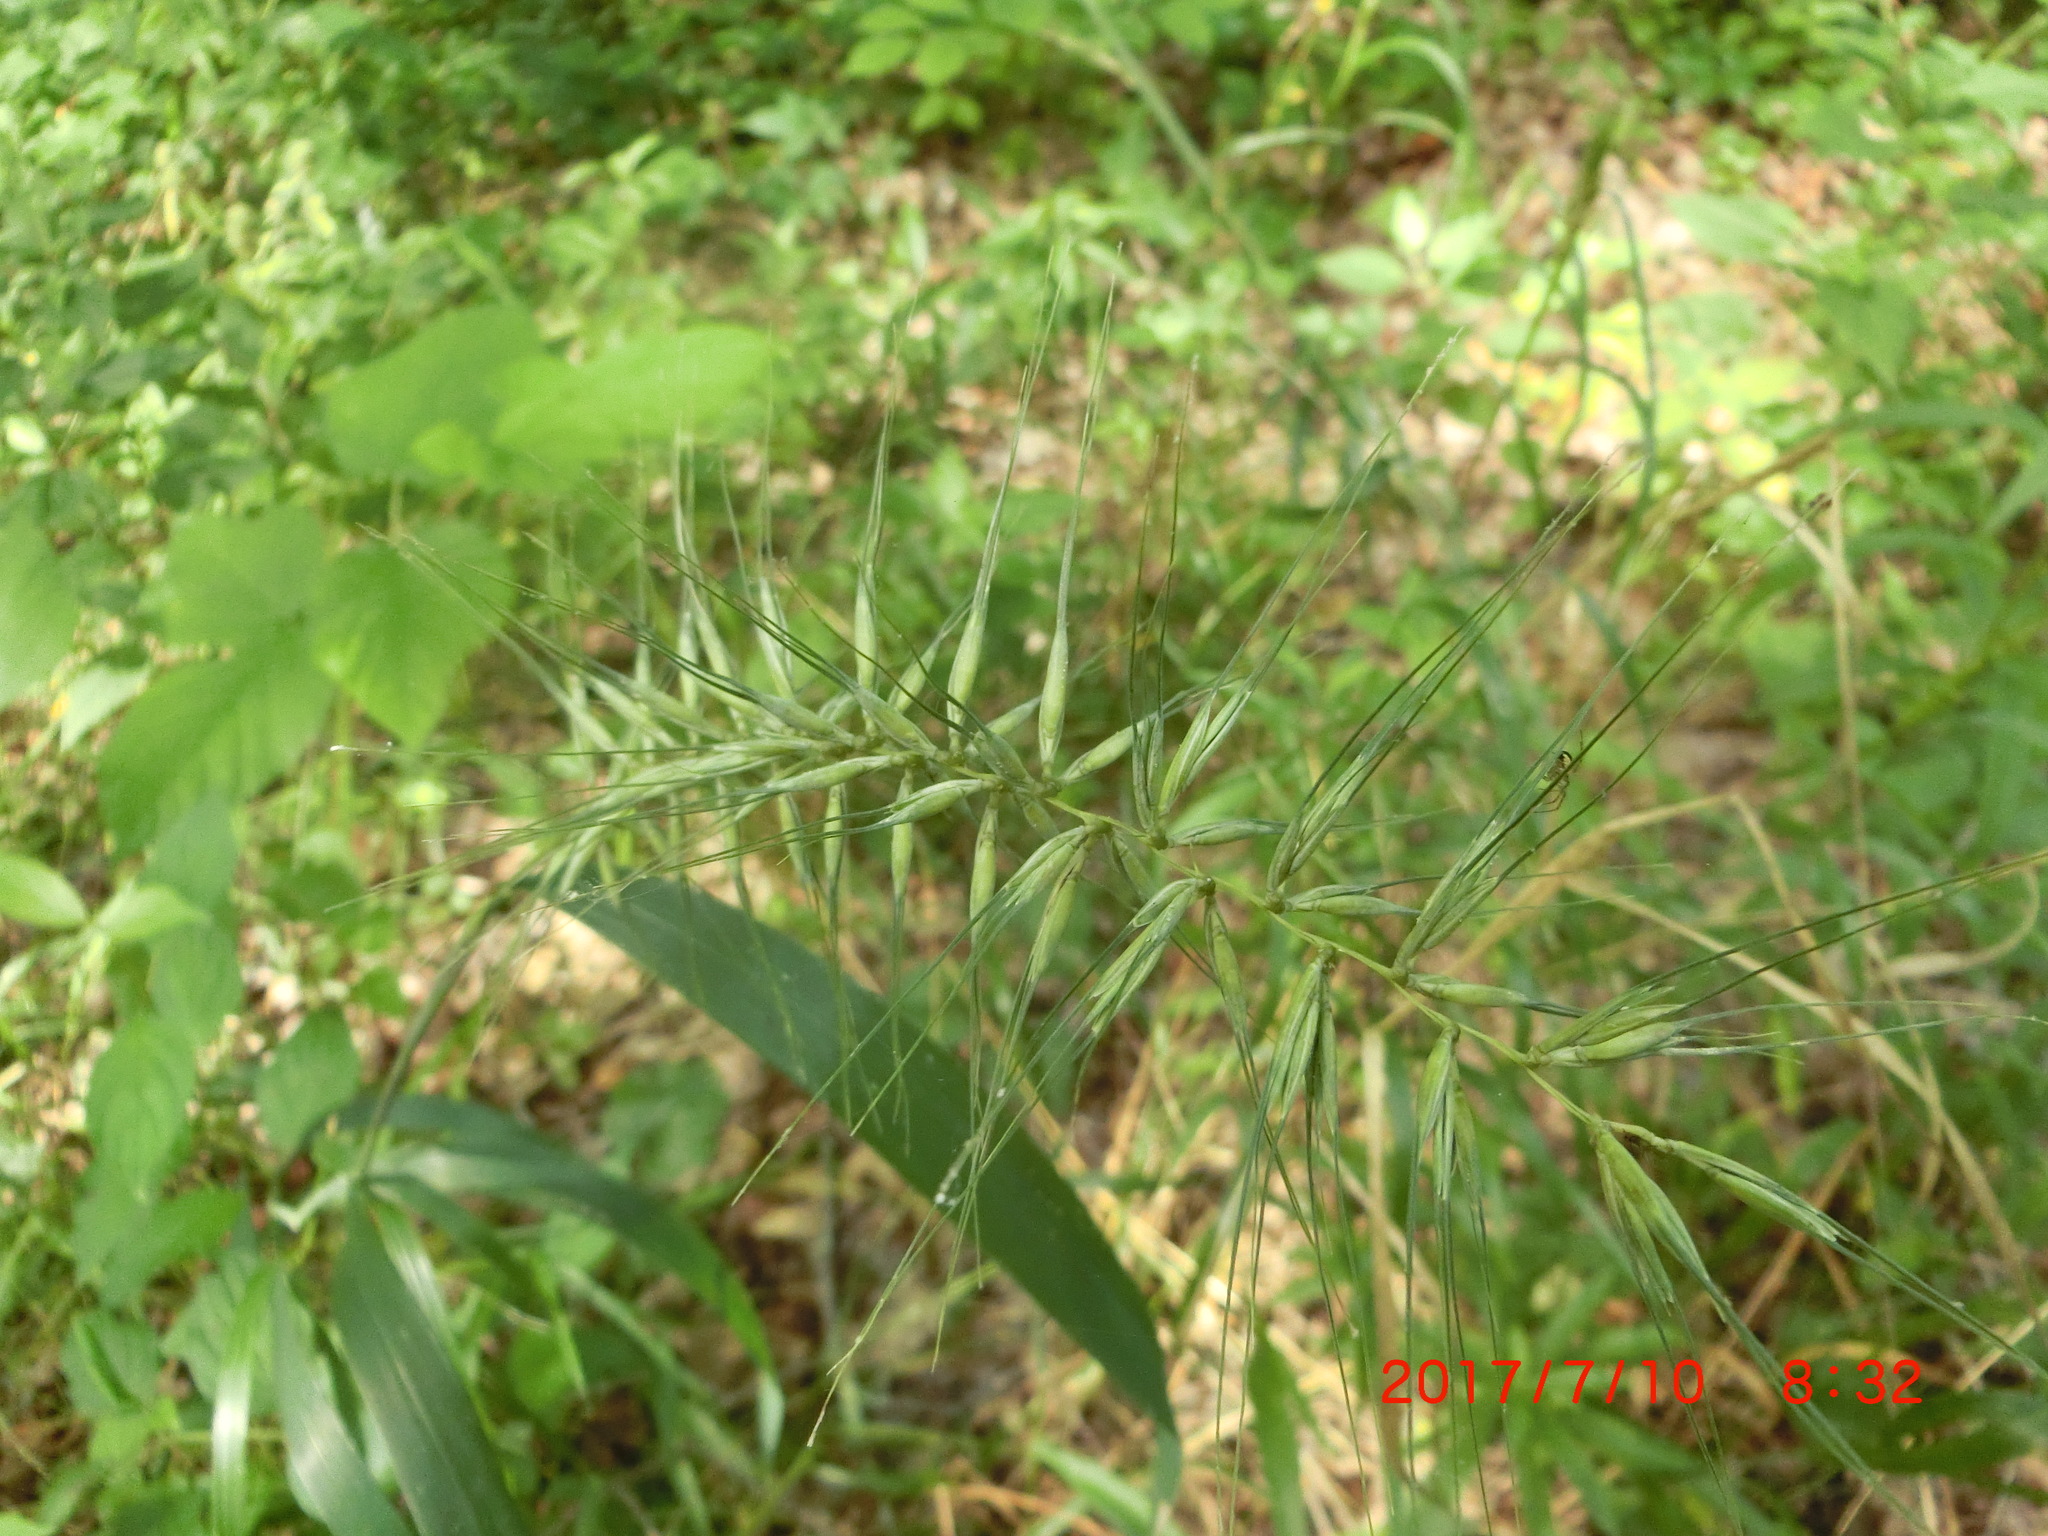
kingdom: Plantae
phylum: Tracheophyta
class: Liliopsida
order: Poales
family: Poaceae
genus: Elymus
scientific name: Elymus hystrix
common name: Bottlebrush grass
